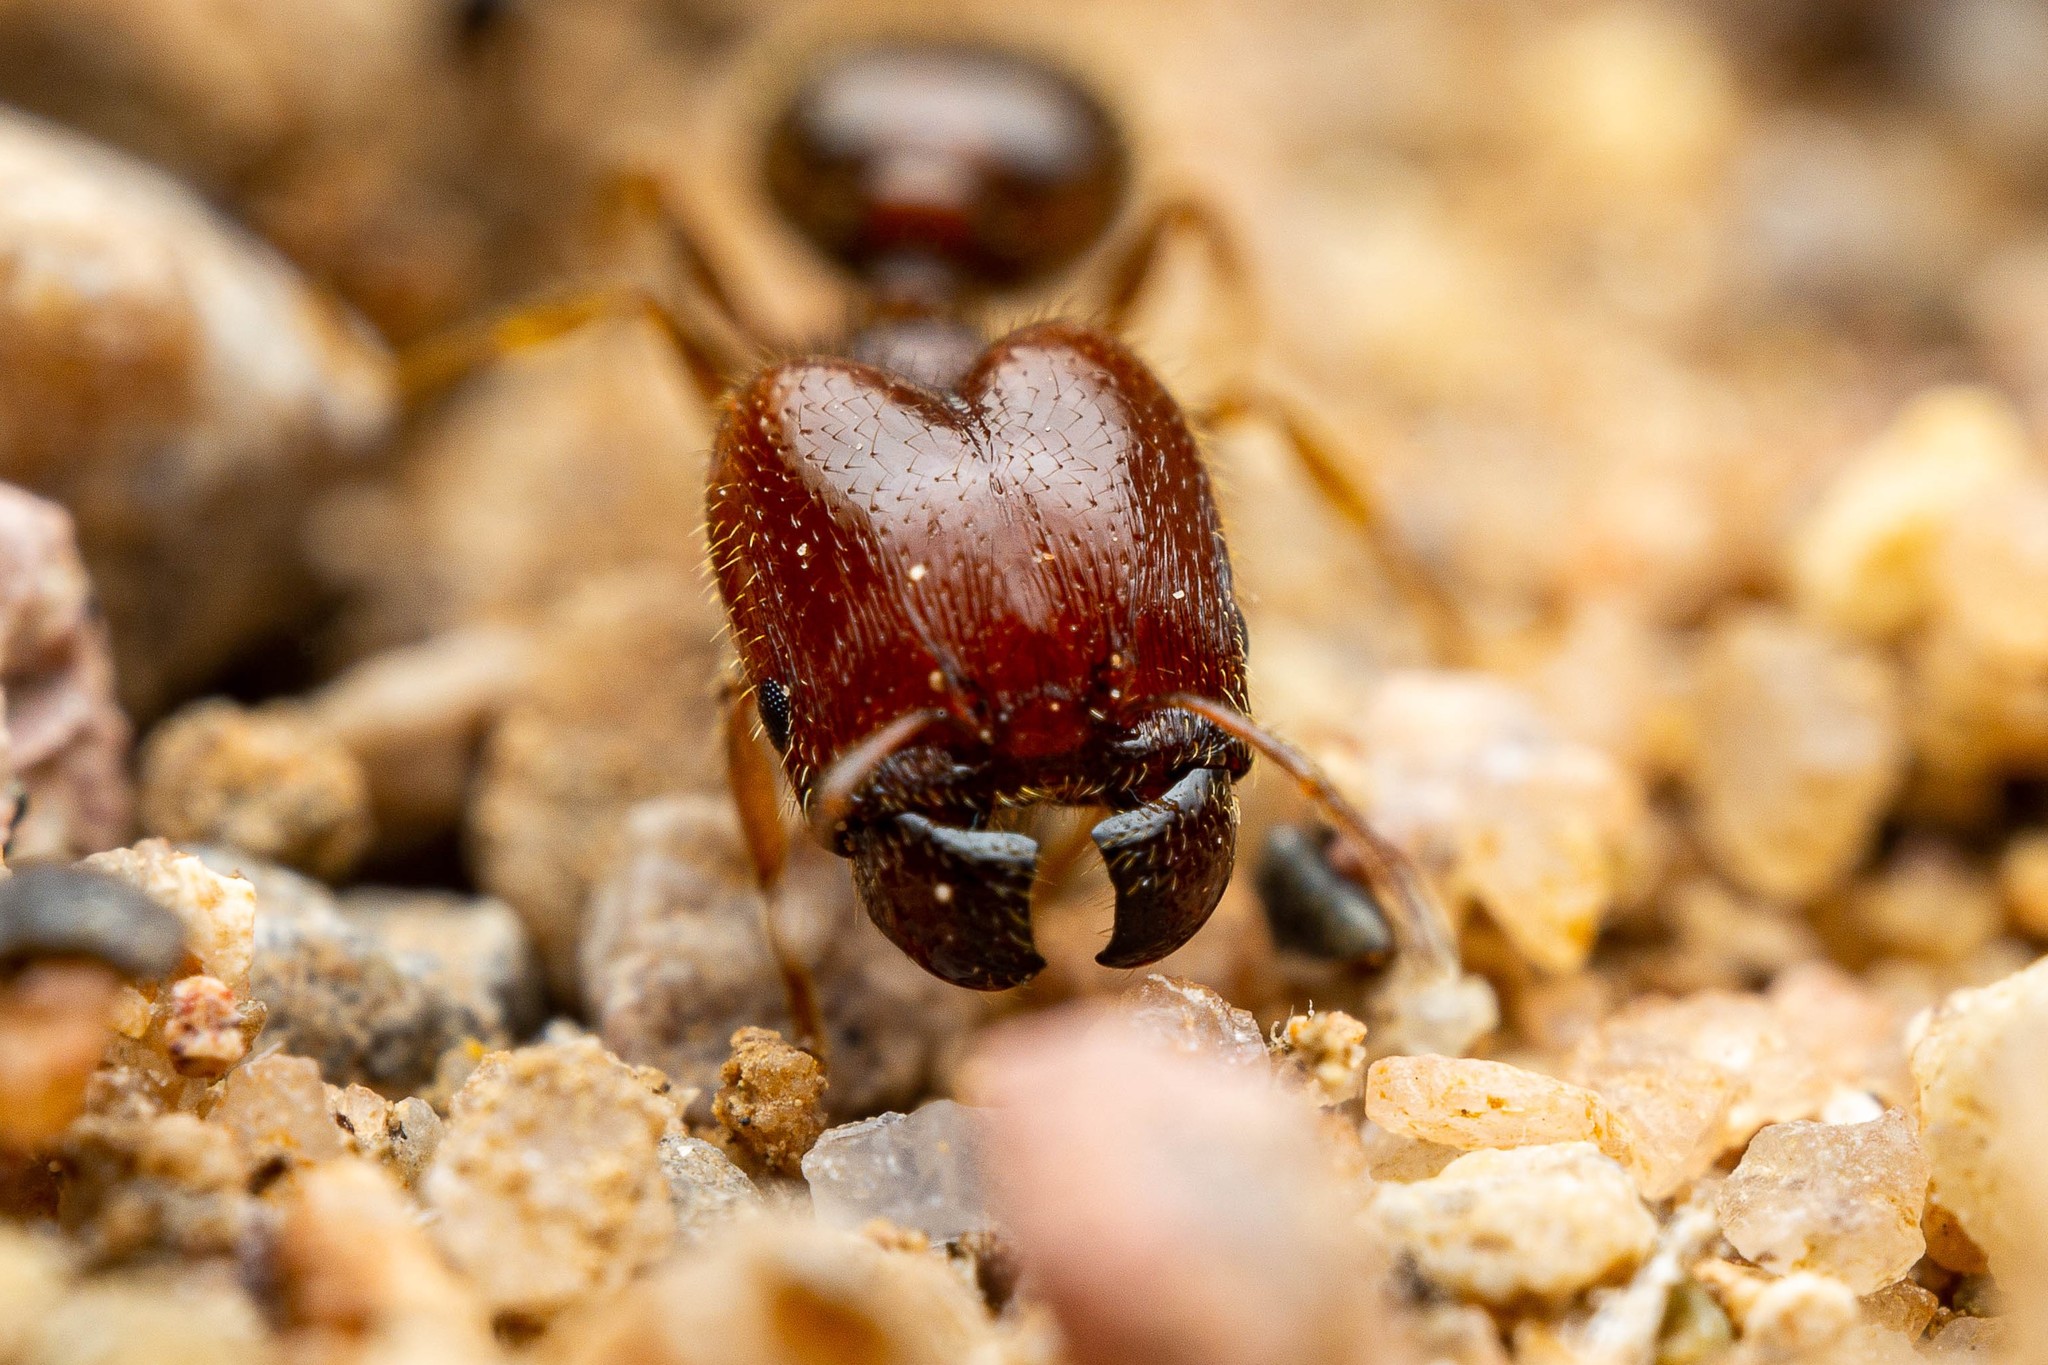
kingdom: Animalia
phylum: Arthropoda
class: Insecta
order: Hymenoptera
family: Formicidae
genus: Pheidole
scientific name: Pheidole xerophila
